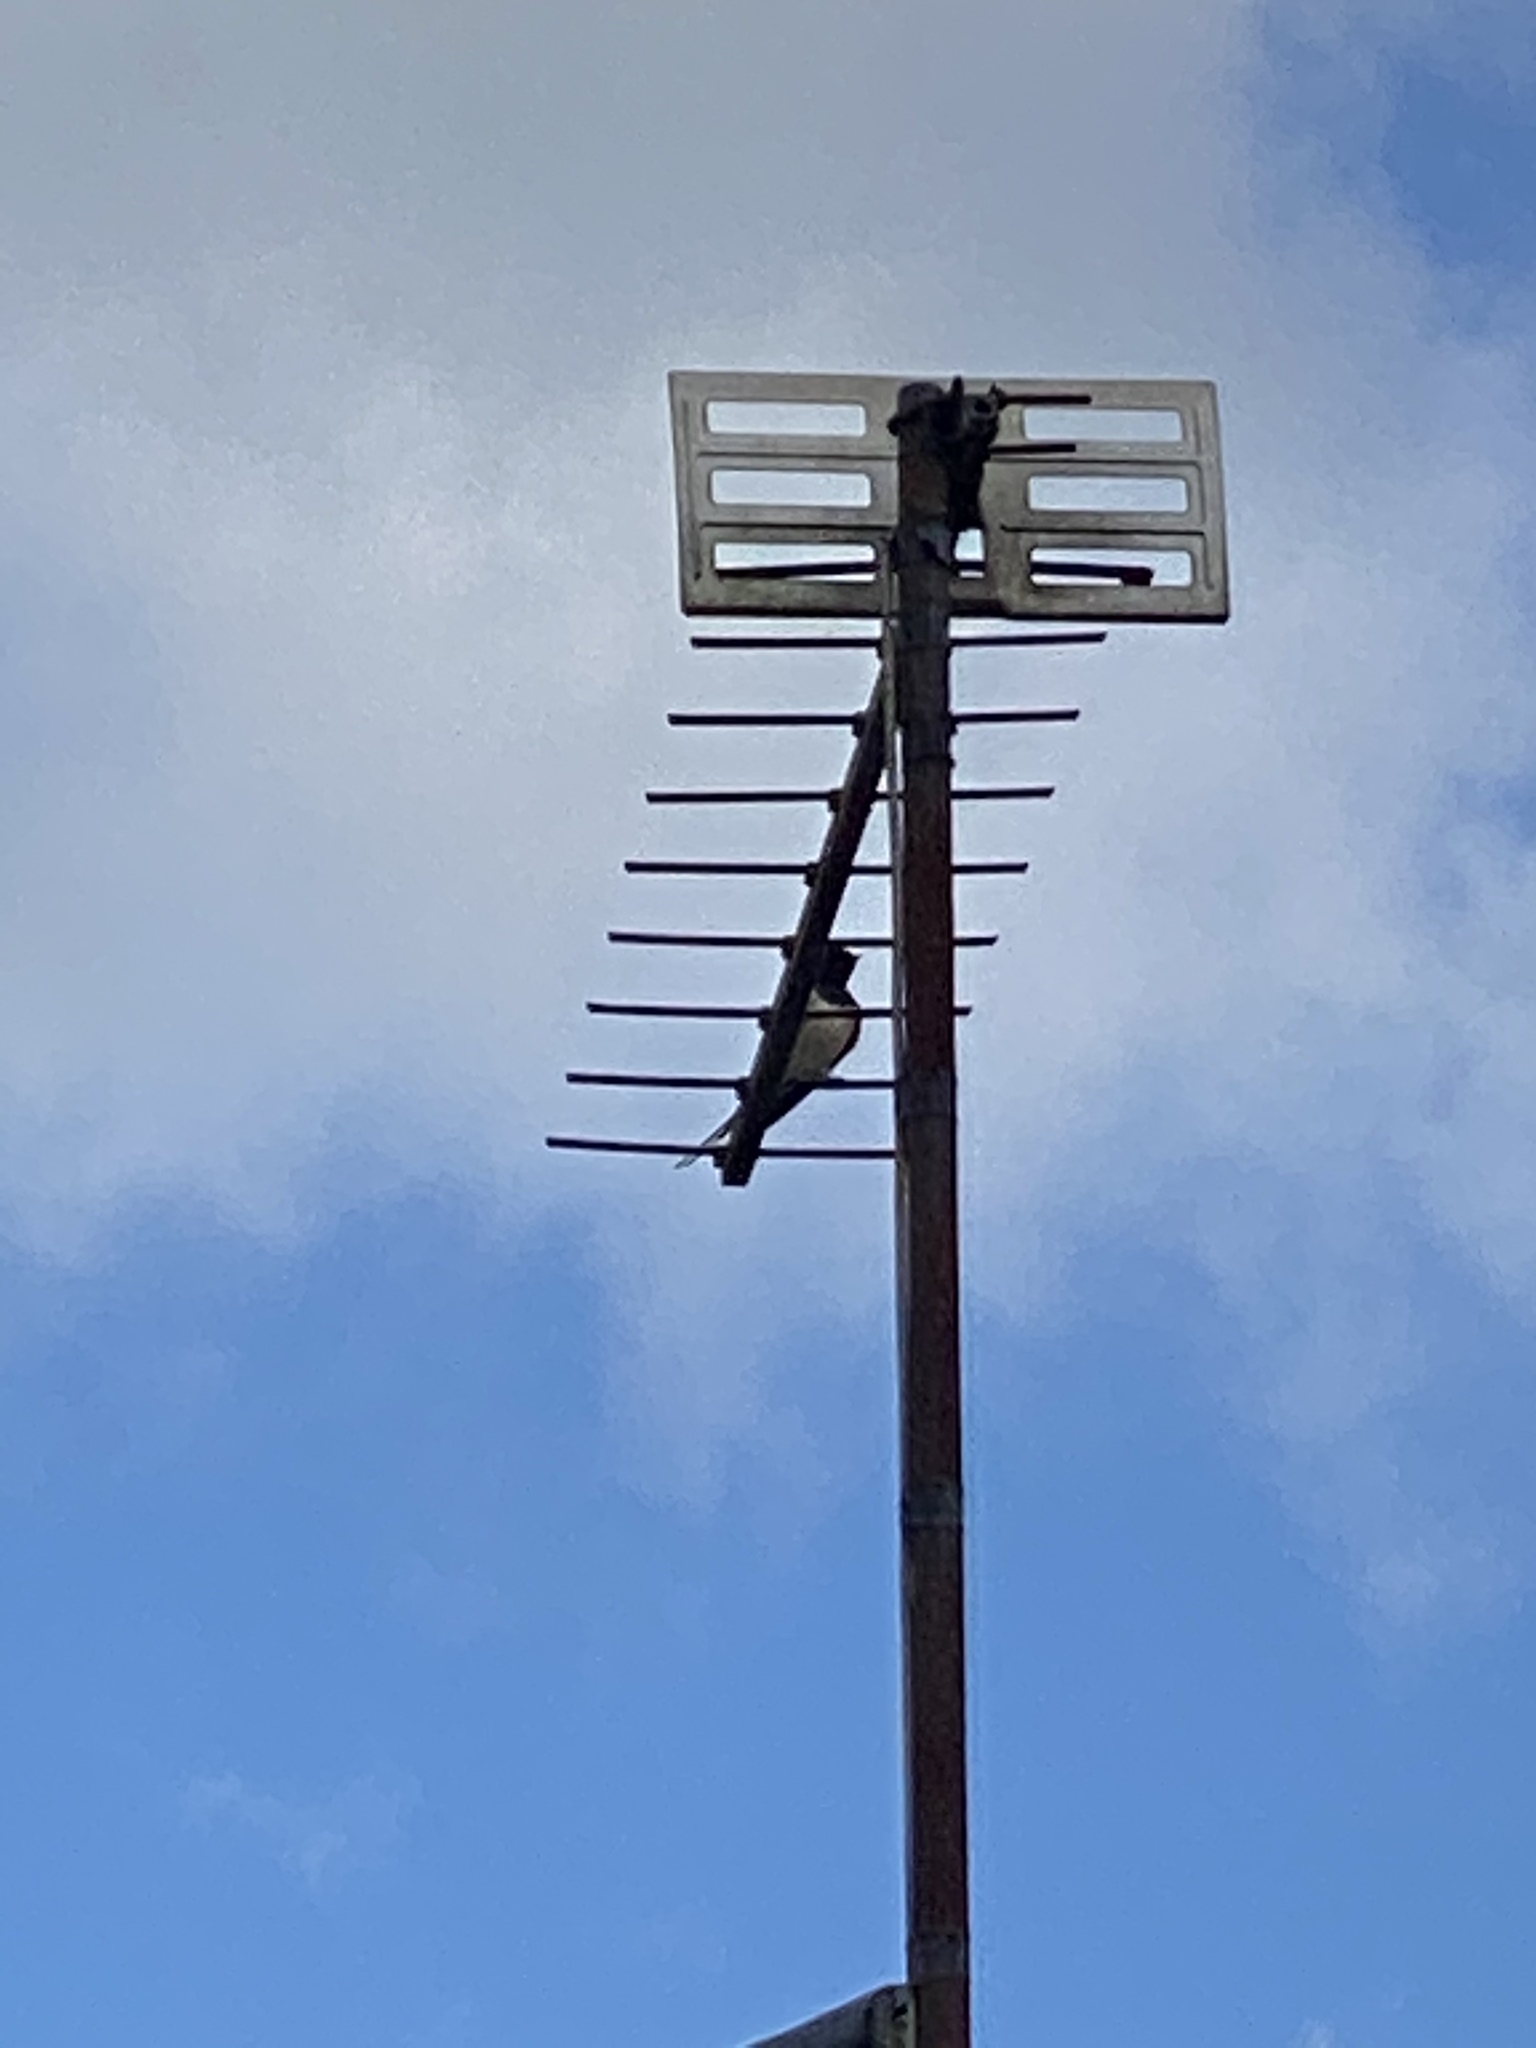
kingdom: Animalia
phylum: Chordata
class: Aves
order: Passeriformes
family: Hirundinidae
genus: Hirundo
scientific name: Hirundo rustica
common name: Barn swallow
